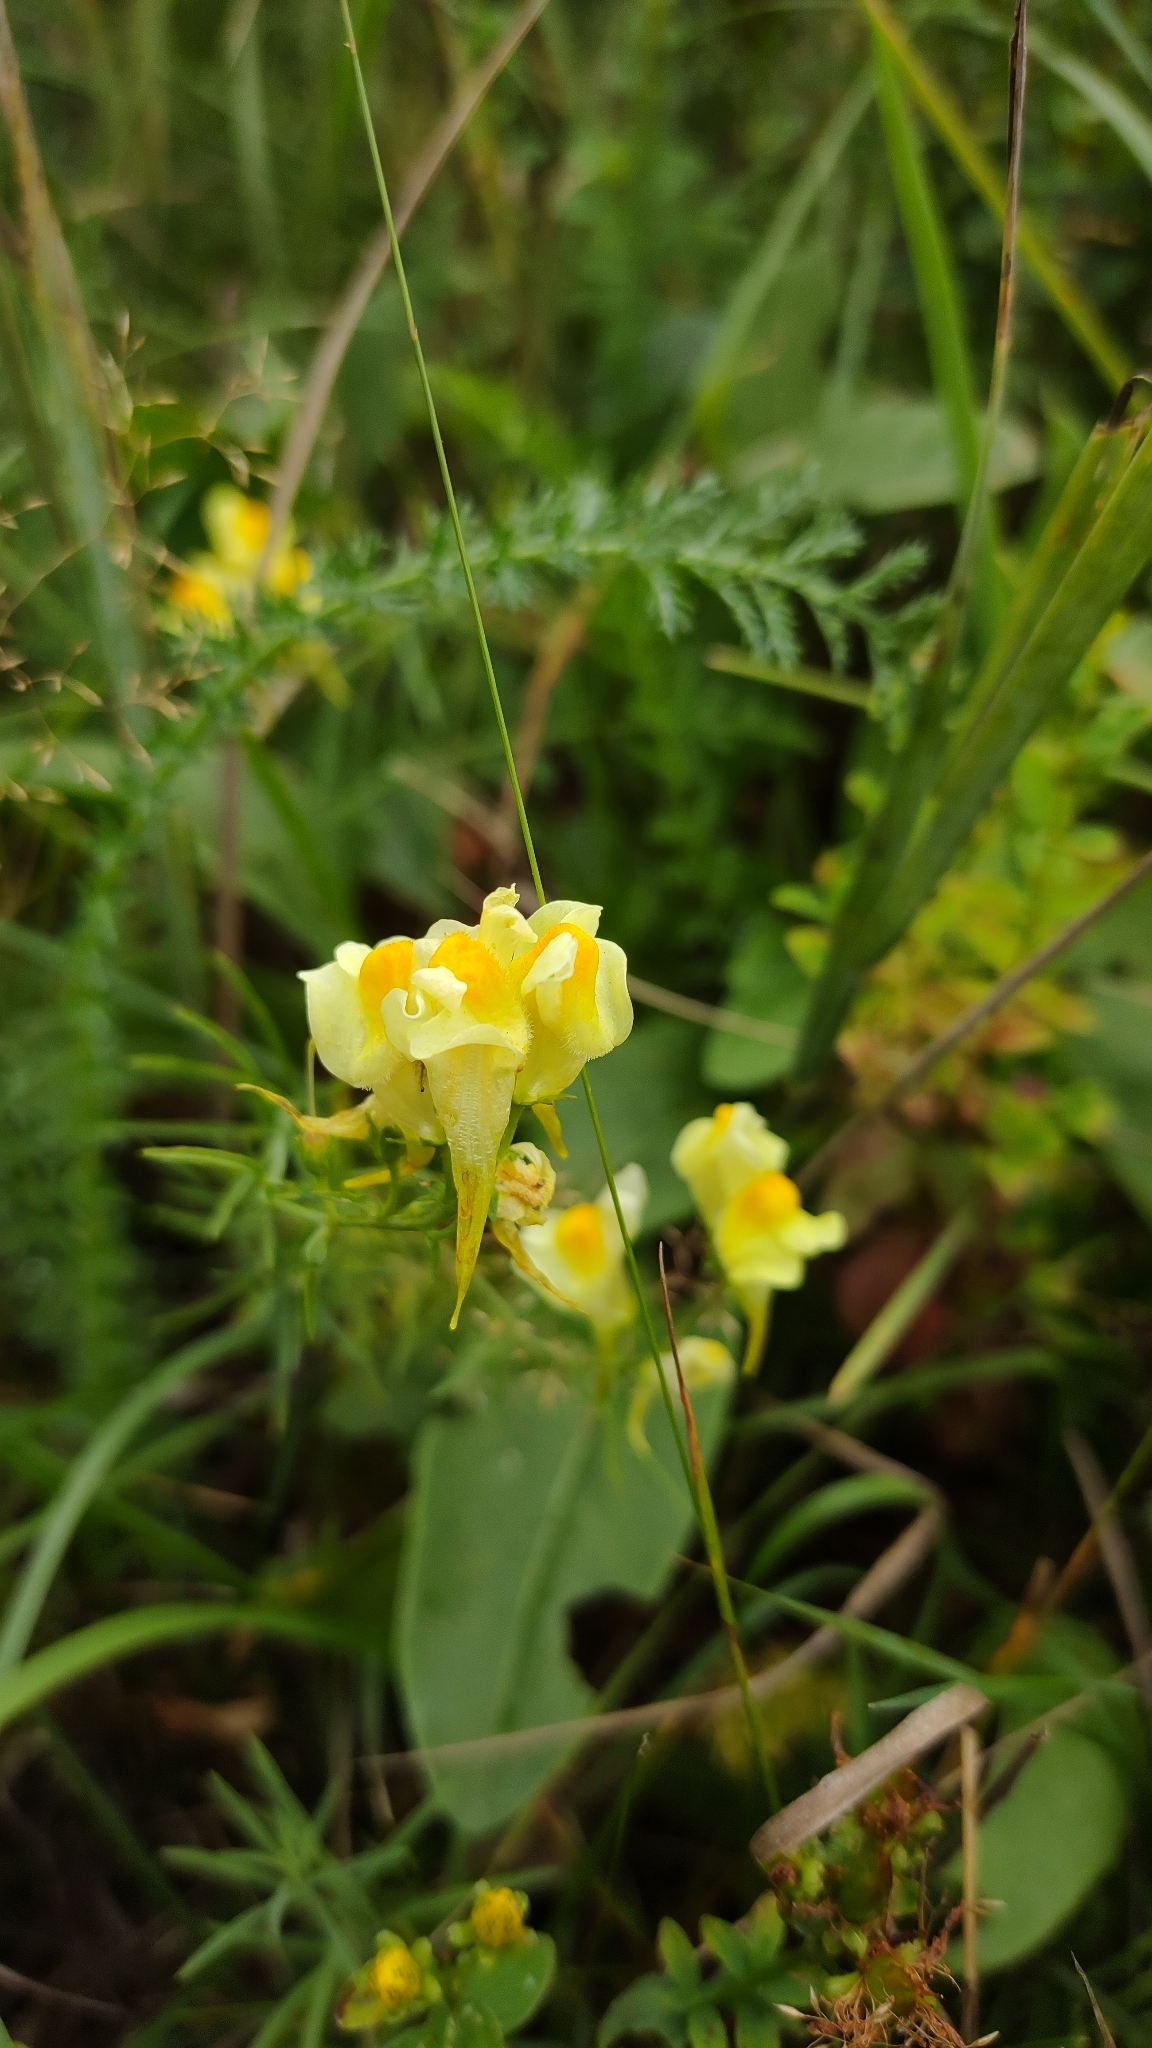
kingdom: Plantae
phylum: Tracheophyta
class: Magnoliopsida
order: Lamiales
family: Plantaginaceae
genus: Linaria
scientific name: Linaria vulgaris
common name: Butter and eggs
